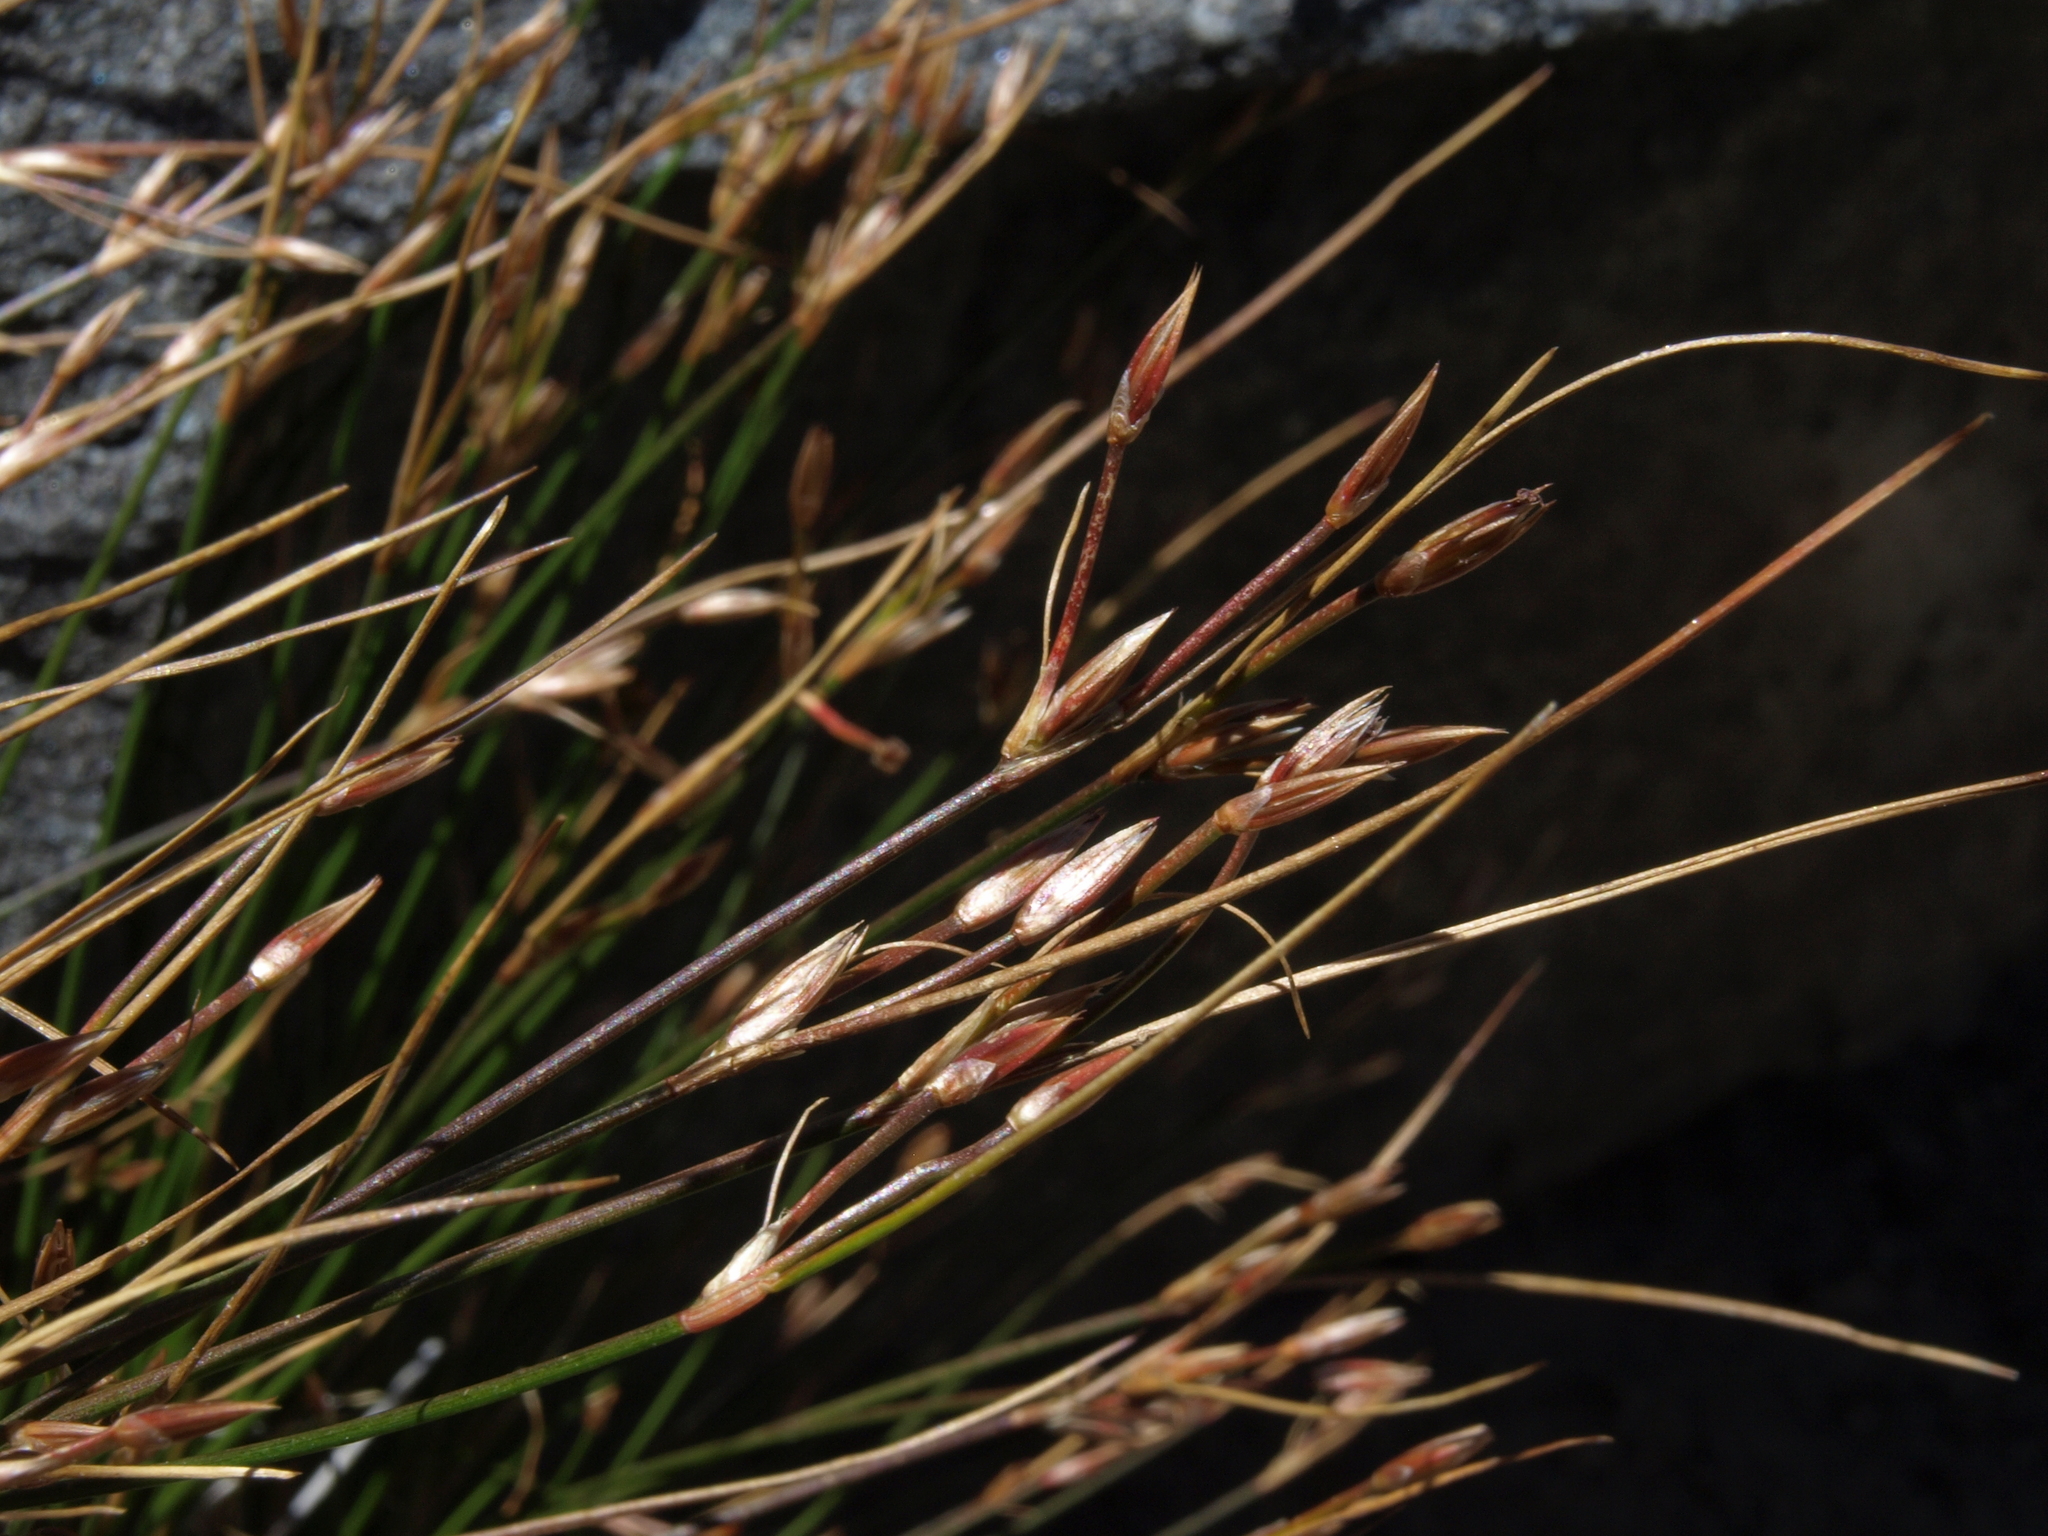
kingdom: Plantae
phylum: Tracheophyta
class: Liliopsida
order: Poales
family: Juncaceae
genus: Juncus
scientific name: Juncus parryi
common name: Parry's rush
